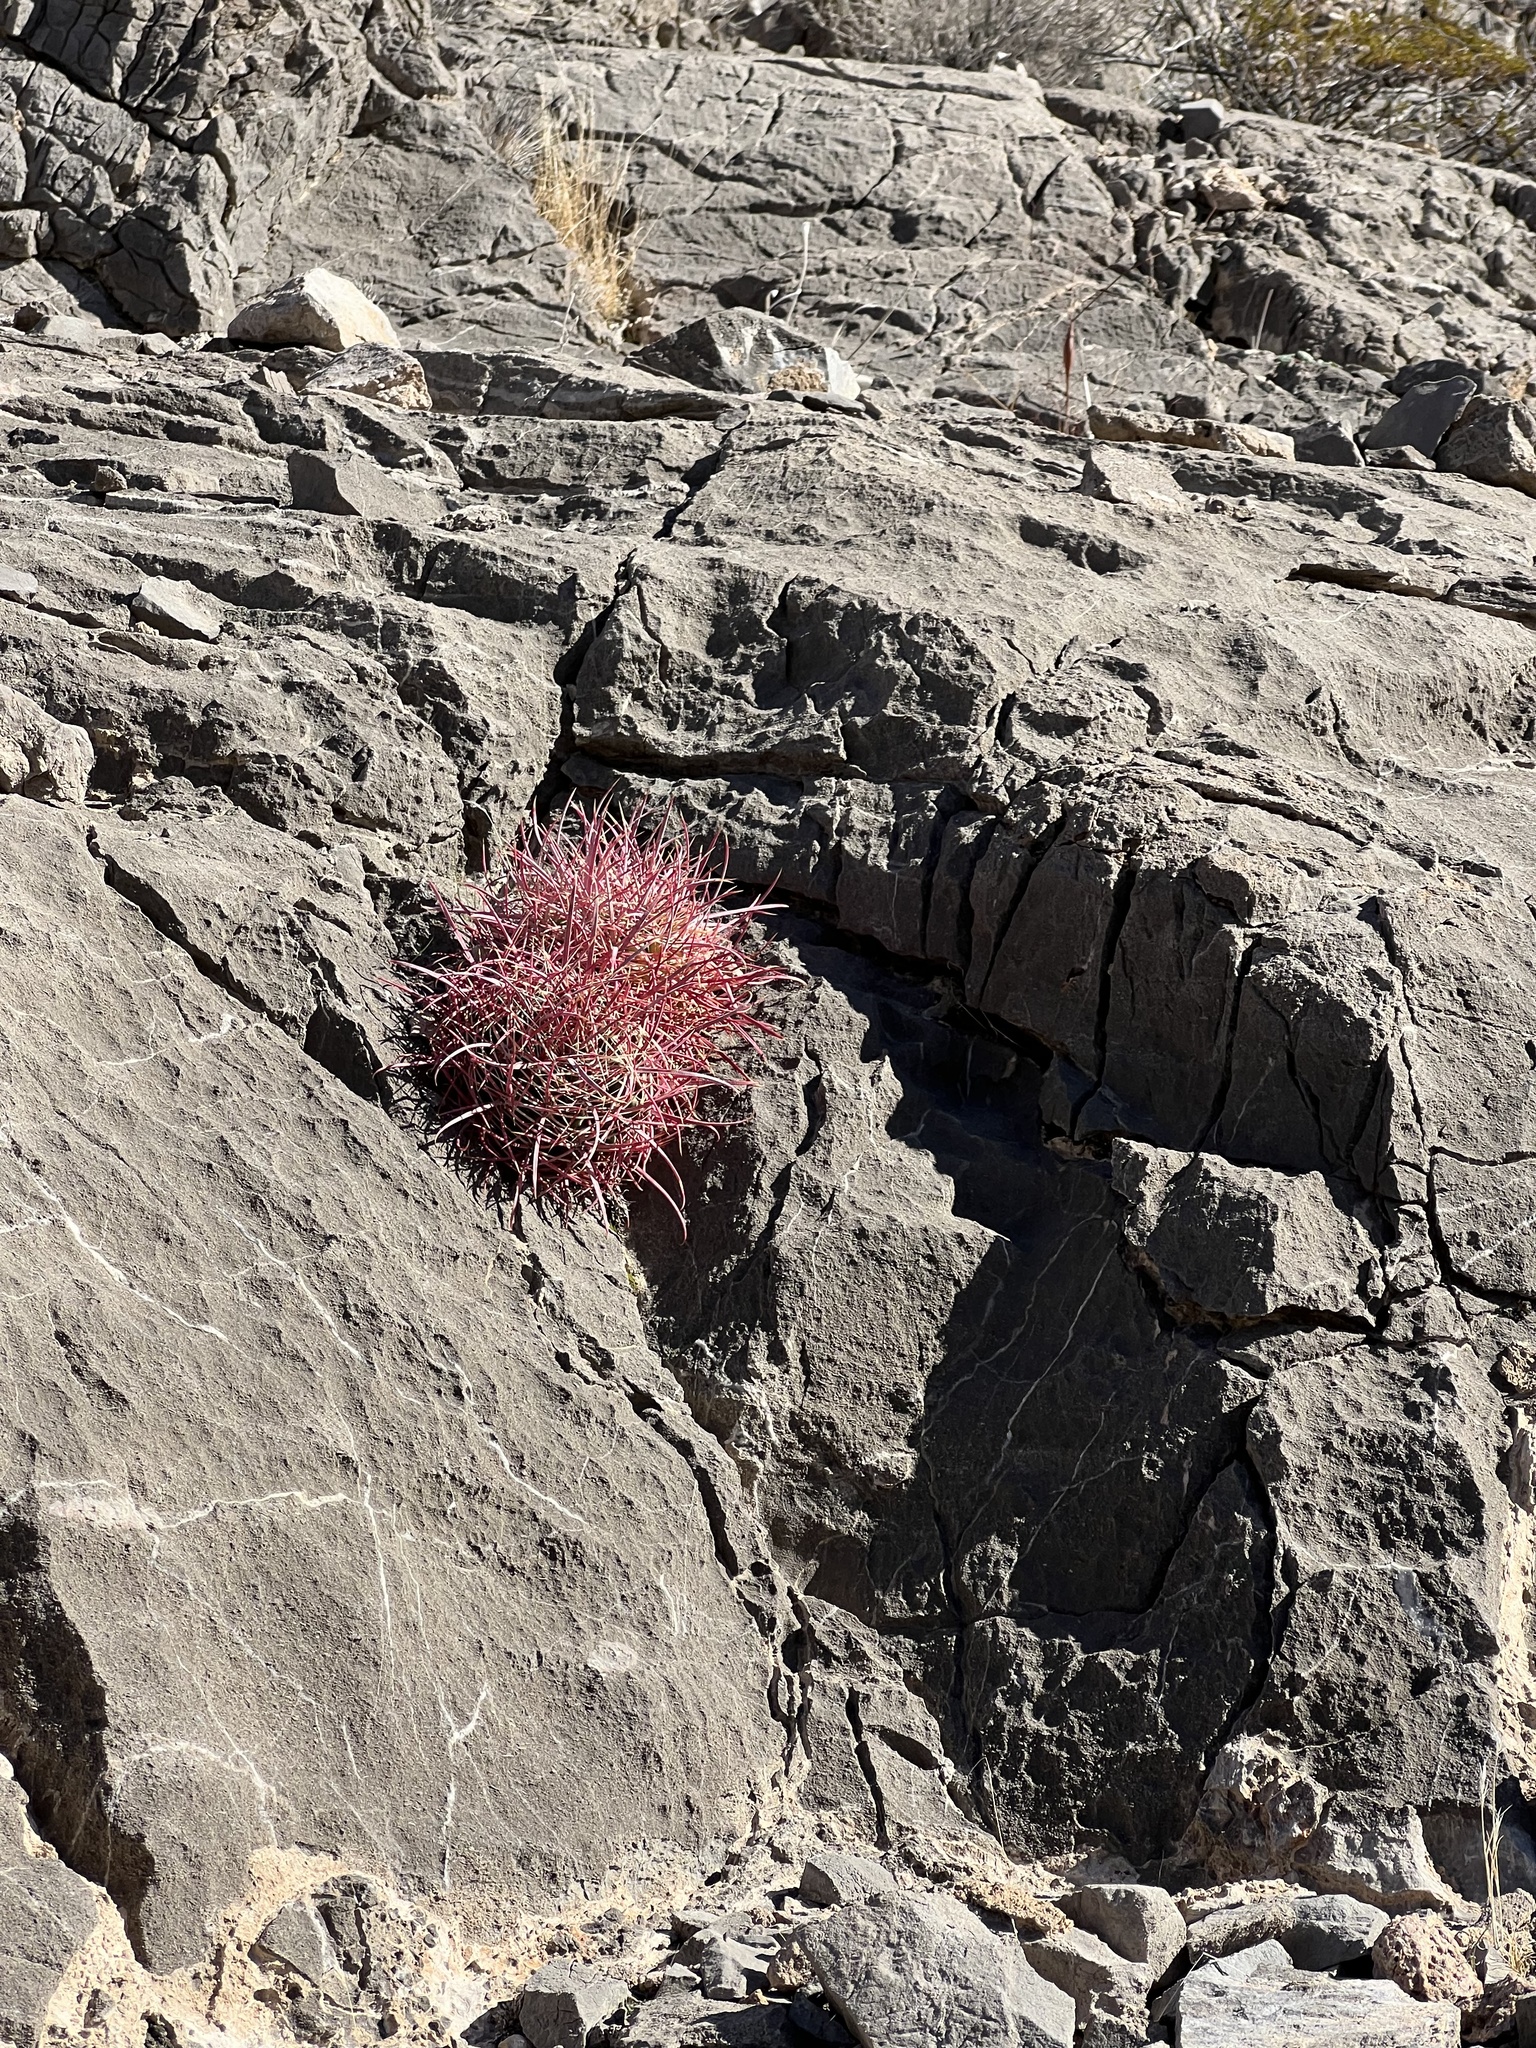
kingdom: Plantae
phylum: Tracheophyta
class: Magnoliopsida
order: Caryophyllales
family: Cactaceae
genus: Ferocactus
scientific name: Ferocactus cylindraceus
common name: California barrel cactus
